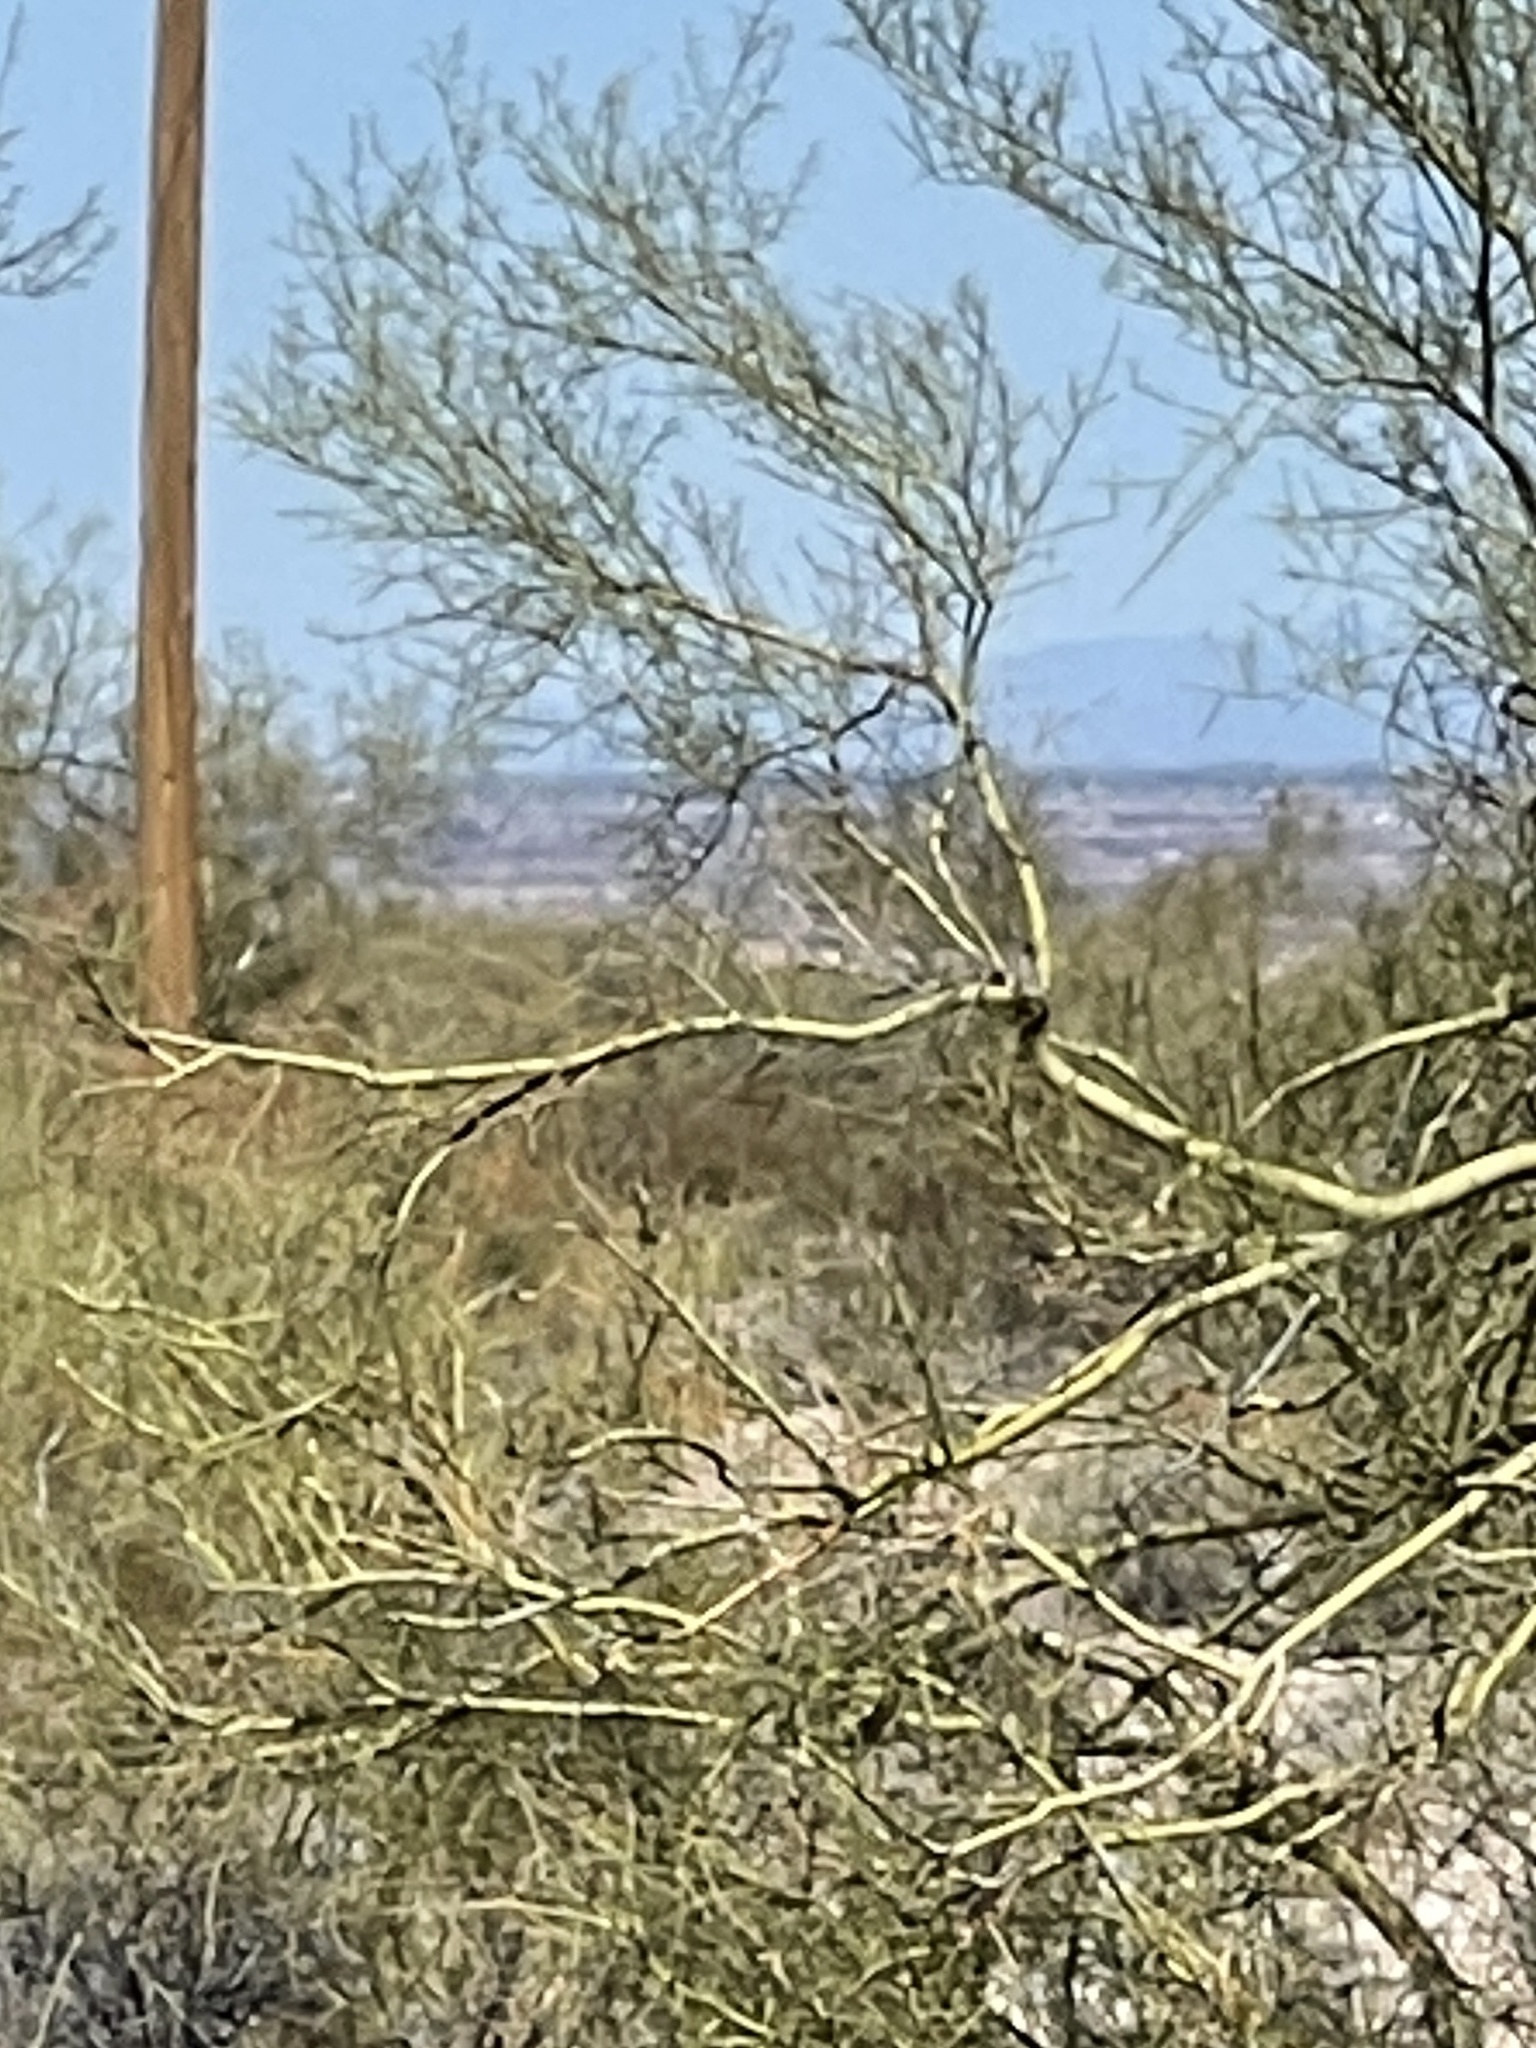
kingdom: Plantae
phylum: Tracheophyta
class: Magnoliopsida
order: Fabales
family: Fabaceae
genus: Parkinsonia
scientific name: Parkinsonia microphylla
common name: Yellow paloverde
